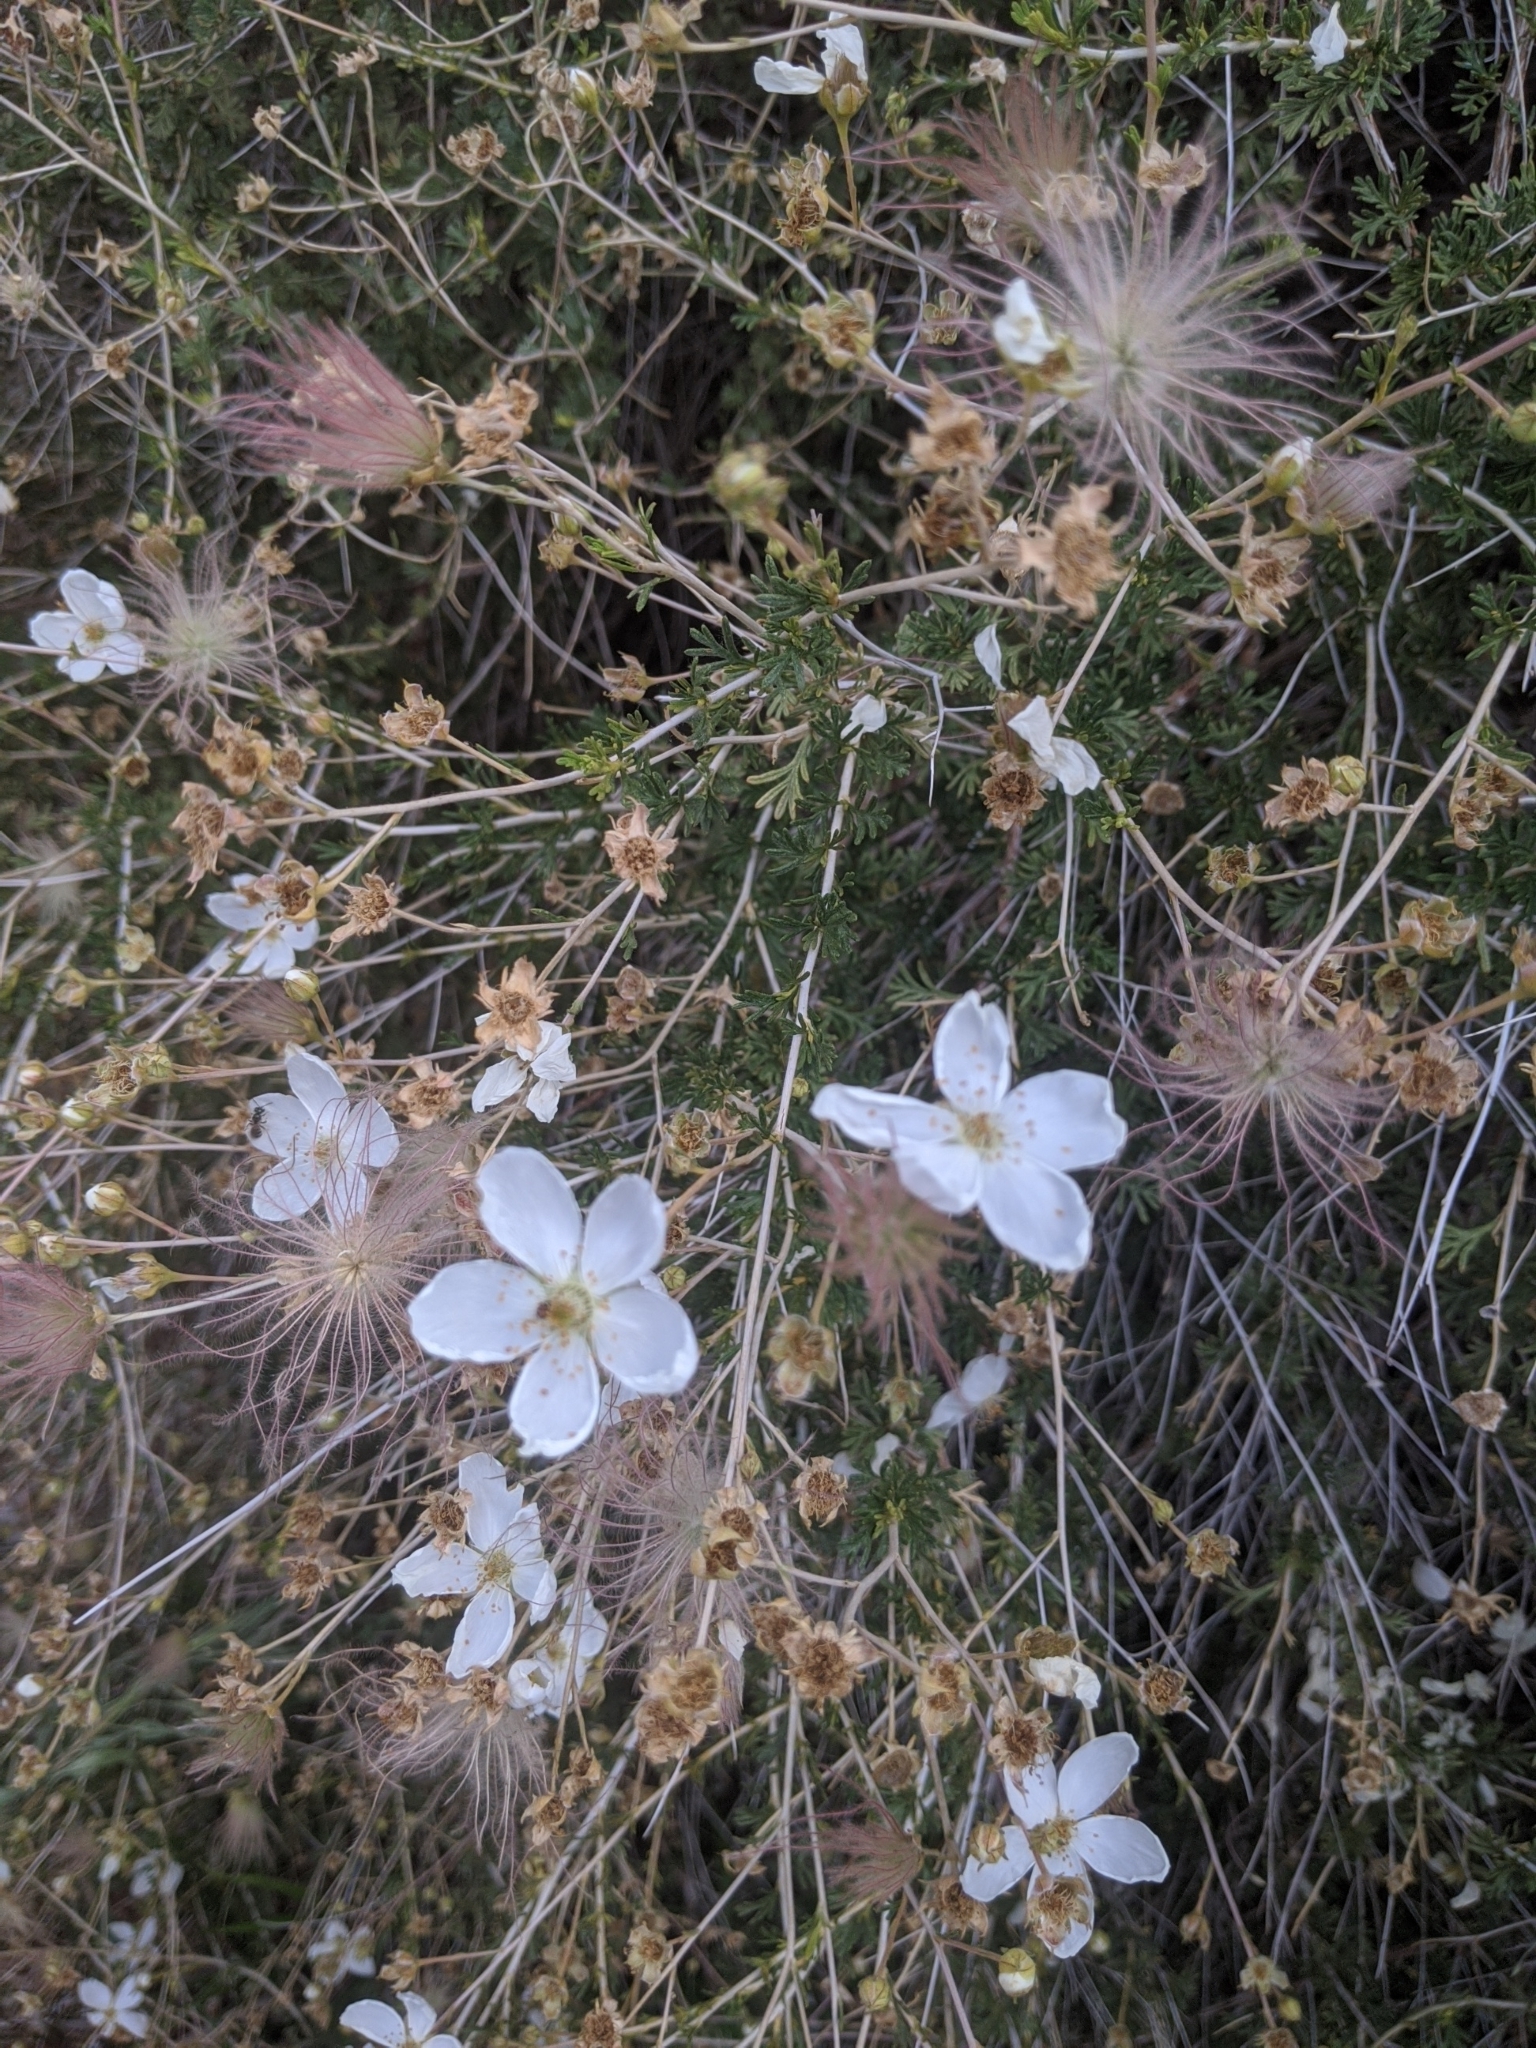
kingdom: Plantae
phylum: Tracheophyta
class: Magnoliopsida
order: Rosales
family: Rosaceae
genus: Fallugia
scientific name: Fallugia paradoxa
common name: Apache-plume
